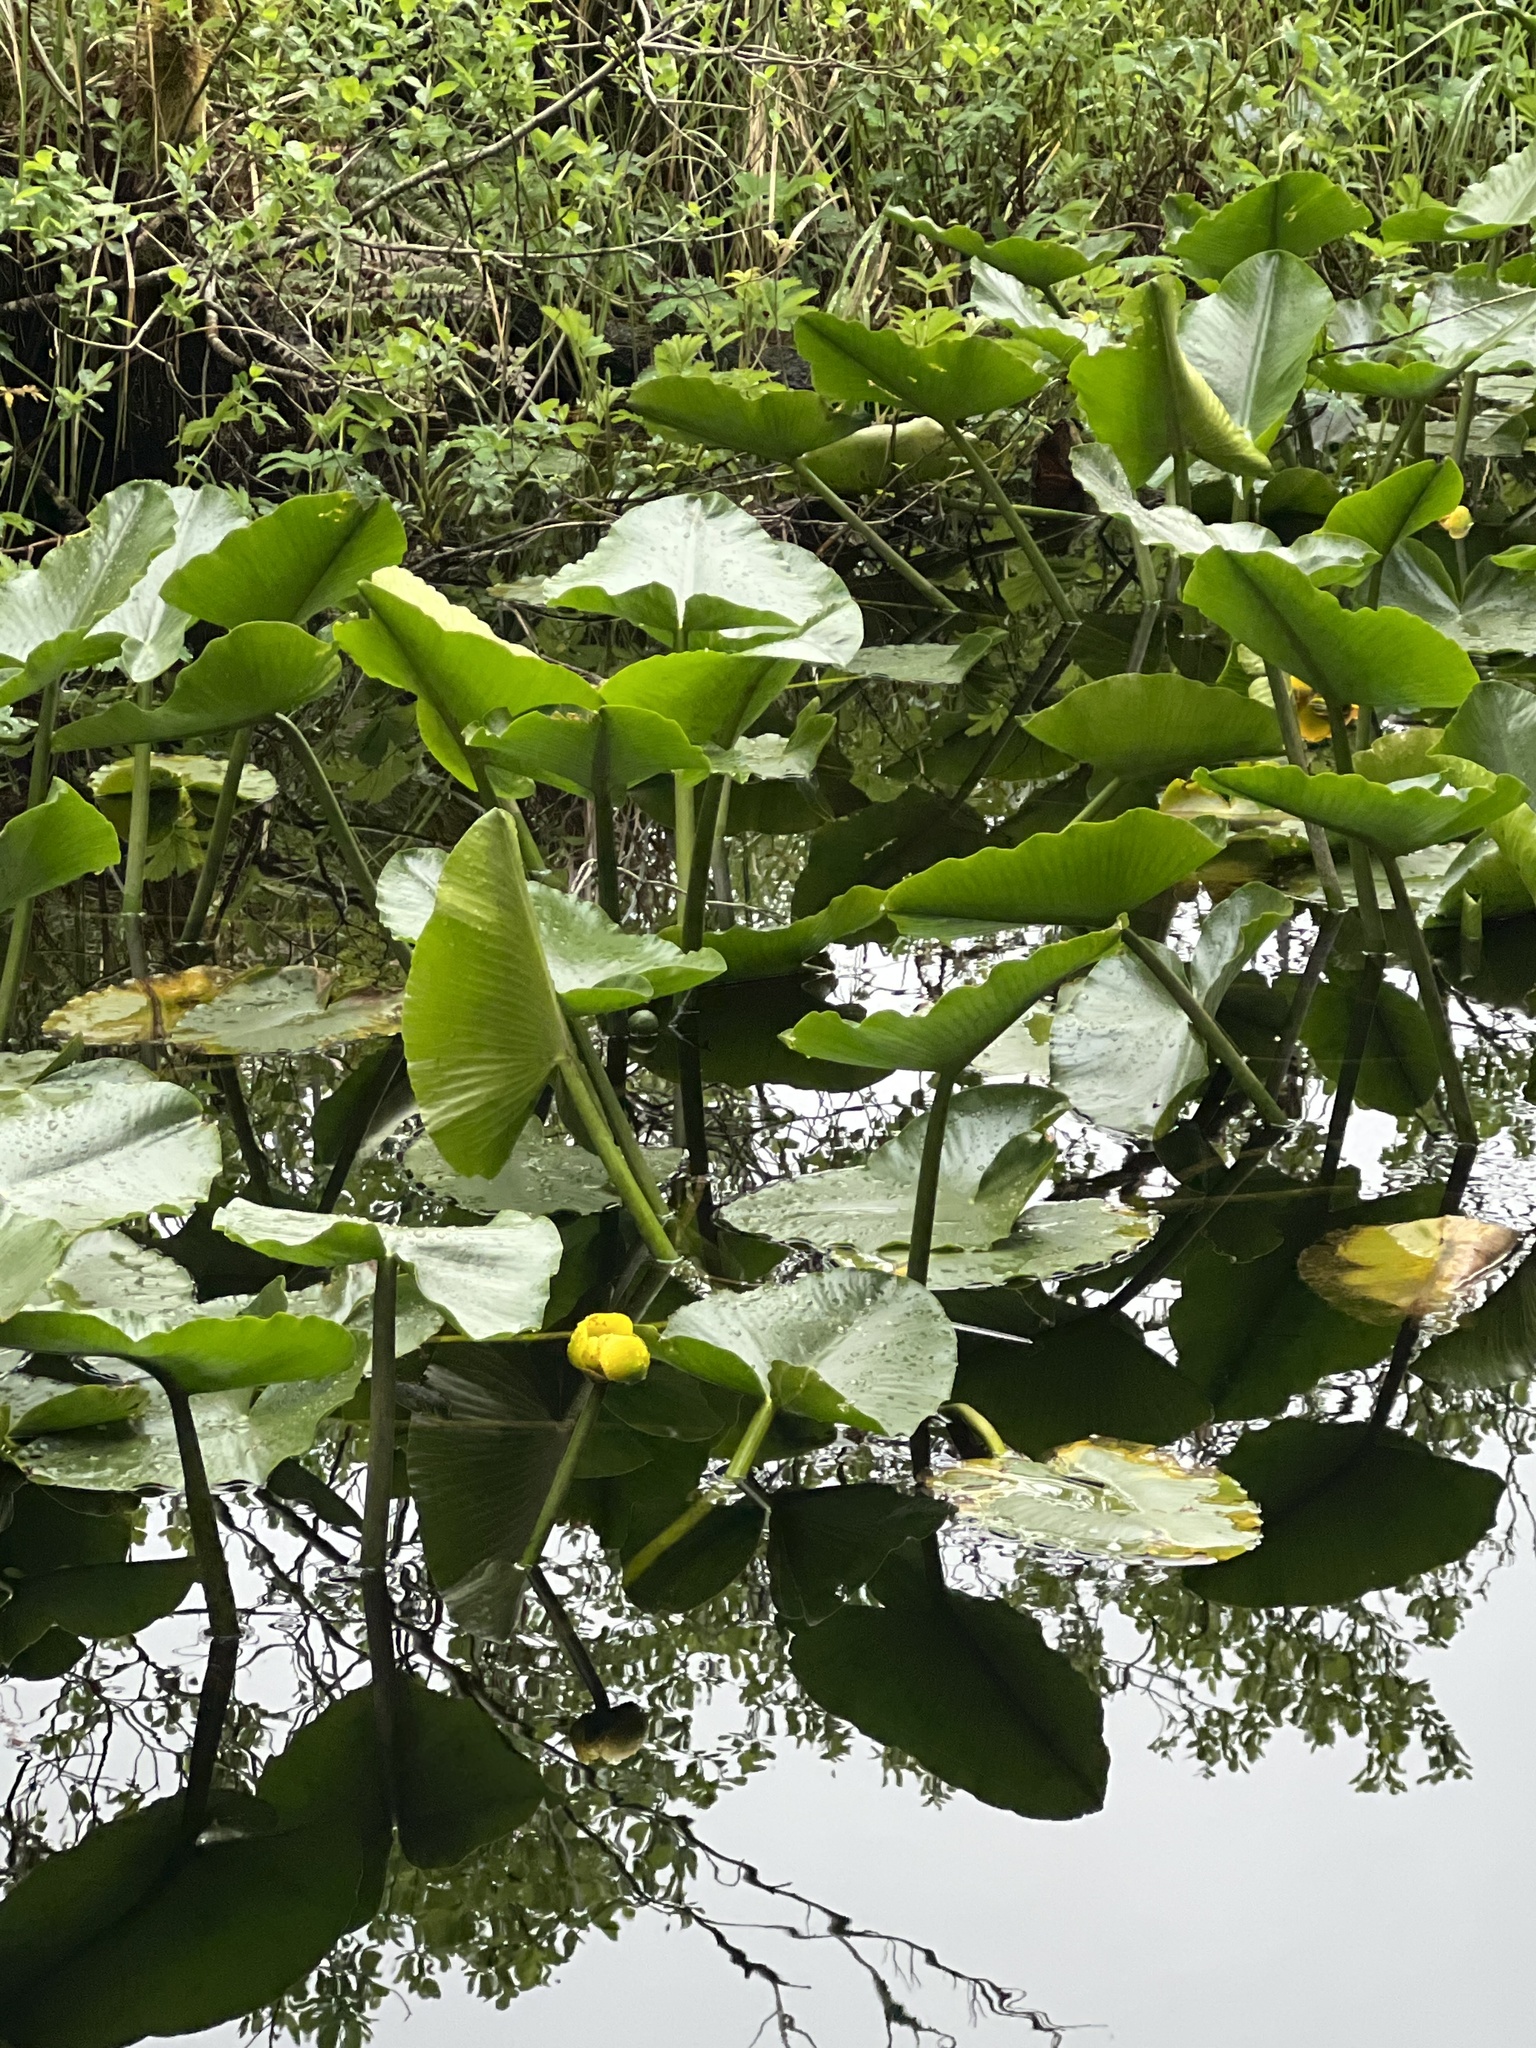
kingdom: Plantae
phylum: Tracheophyta
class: Magnoliopsida
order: Nymphaeales
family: Nymphaeaceae
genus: Nuphar
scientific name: Nuphar polysepala
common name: Rocky mountain cow-lily
